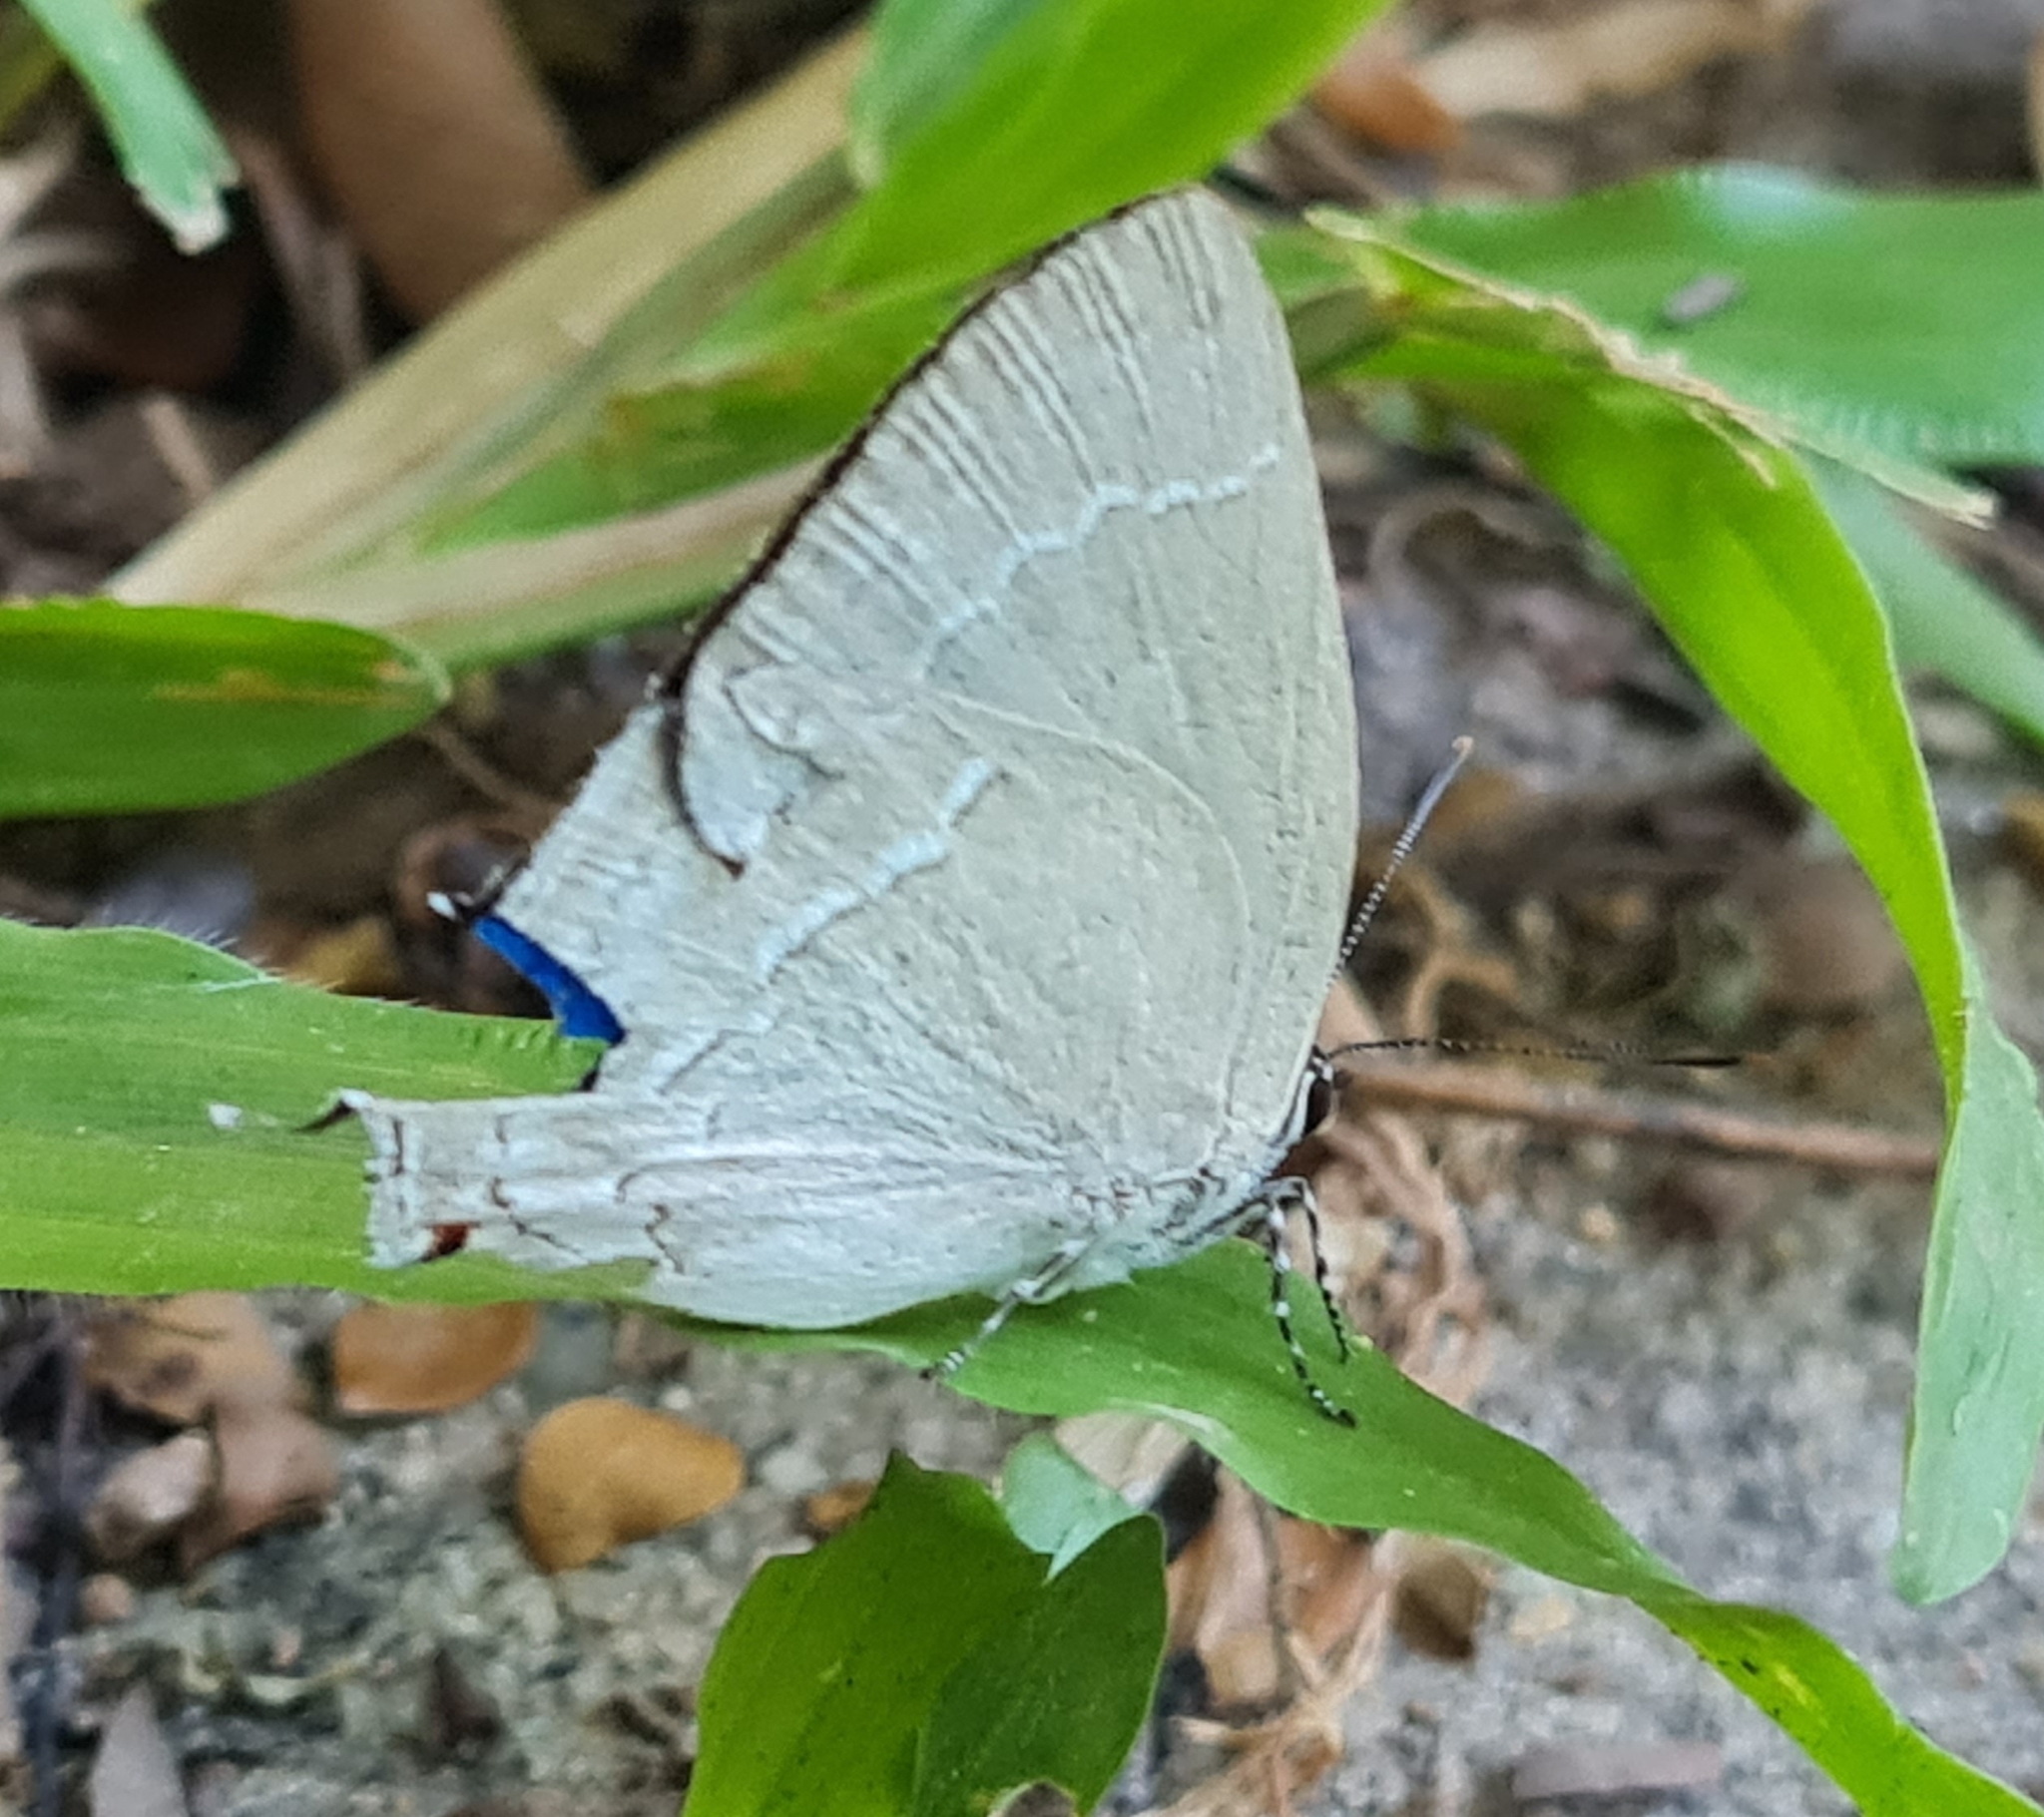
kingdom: Animalia
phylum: Arthropoda
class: Insecta
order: Lepidoptera
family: Lycaenidae
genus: Strephonota
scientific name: Strephonota elika
